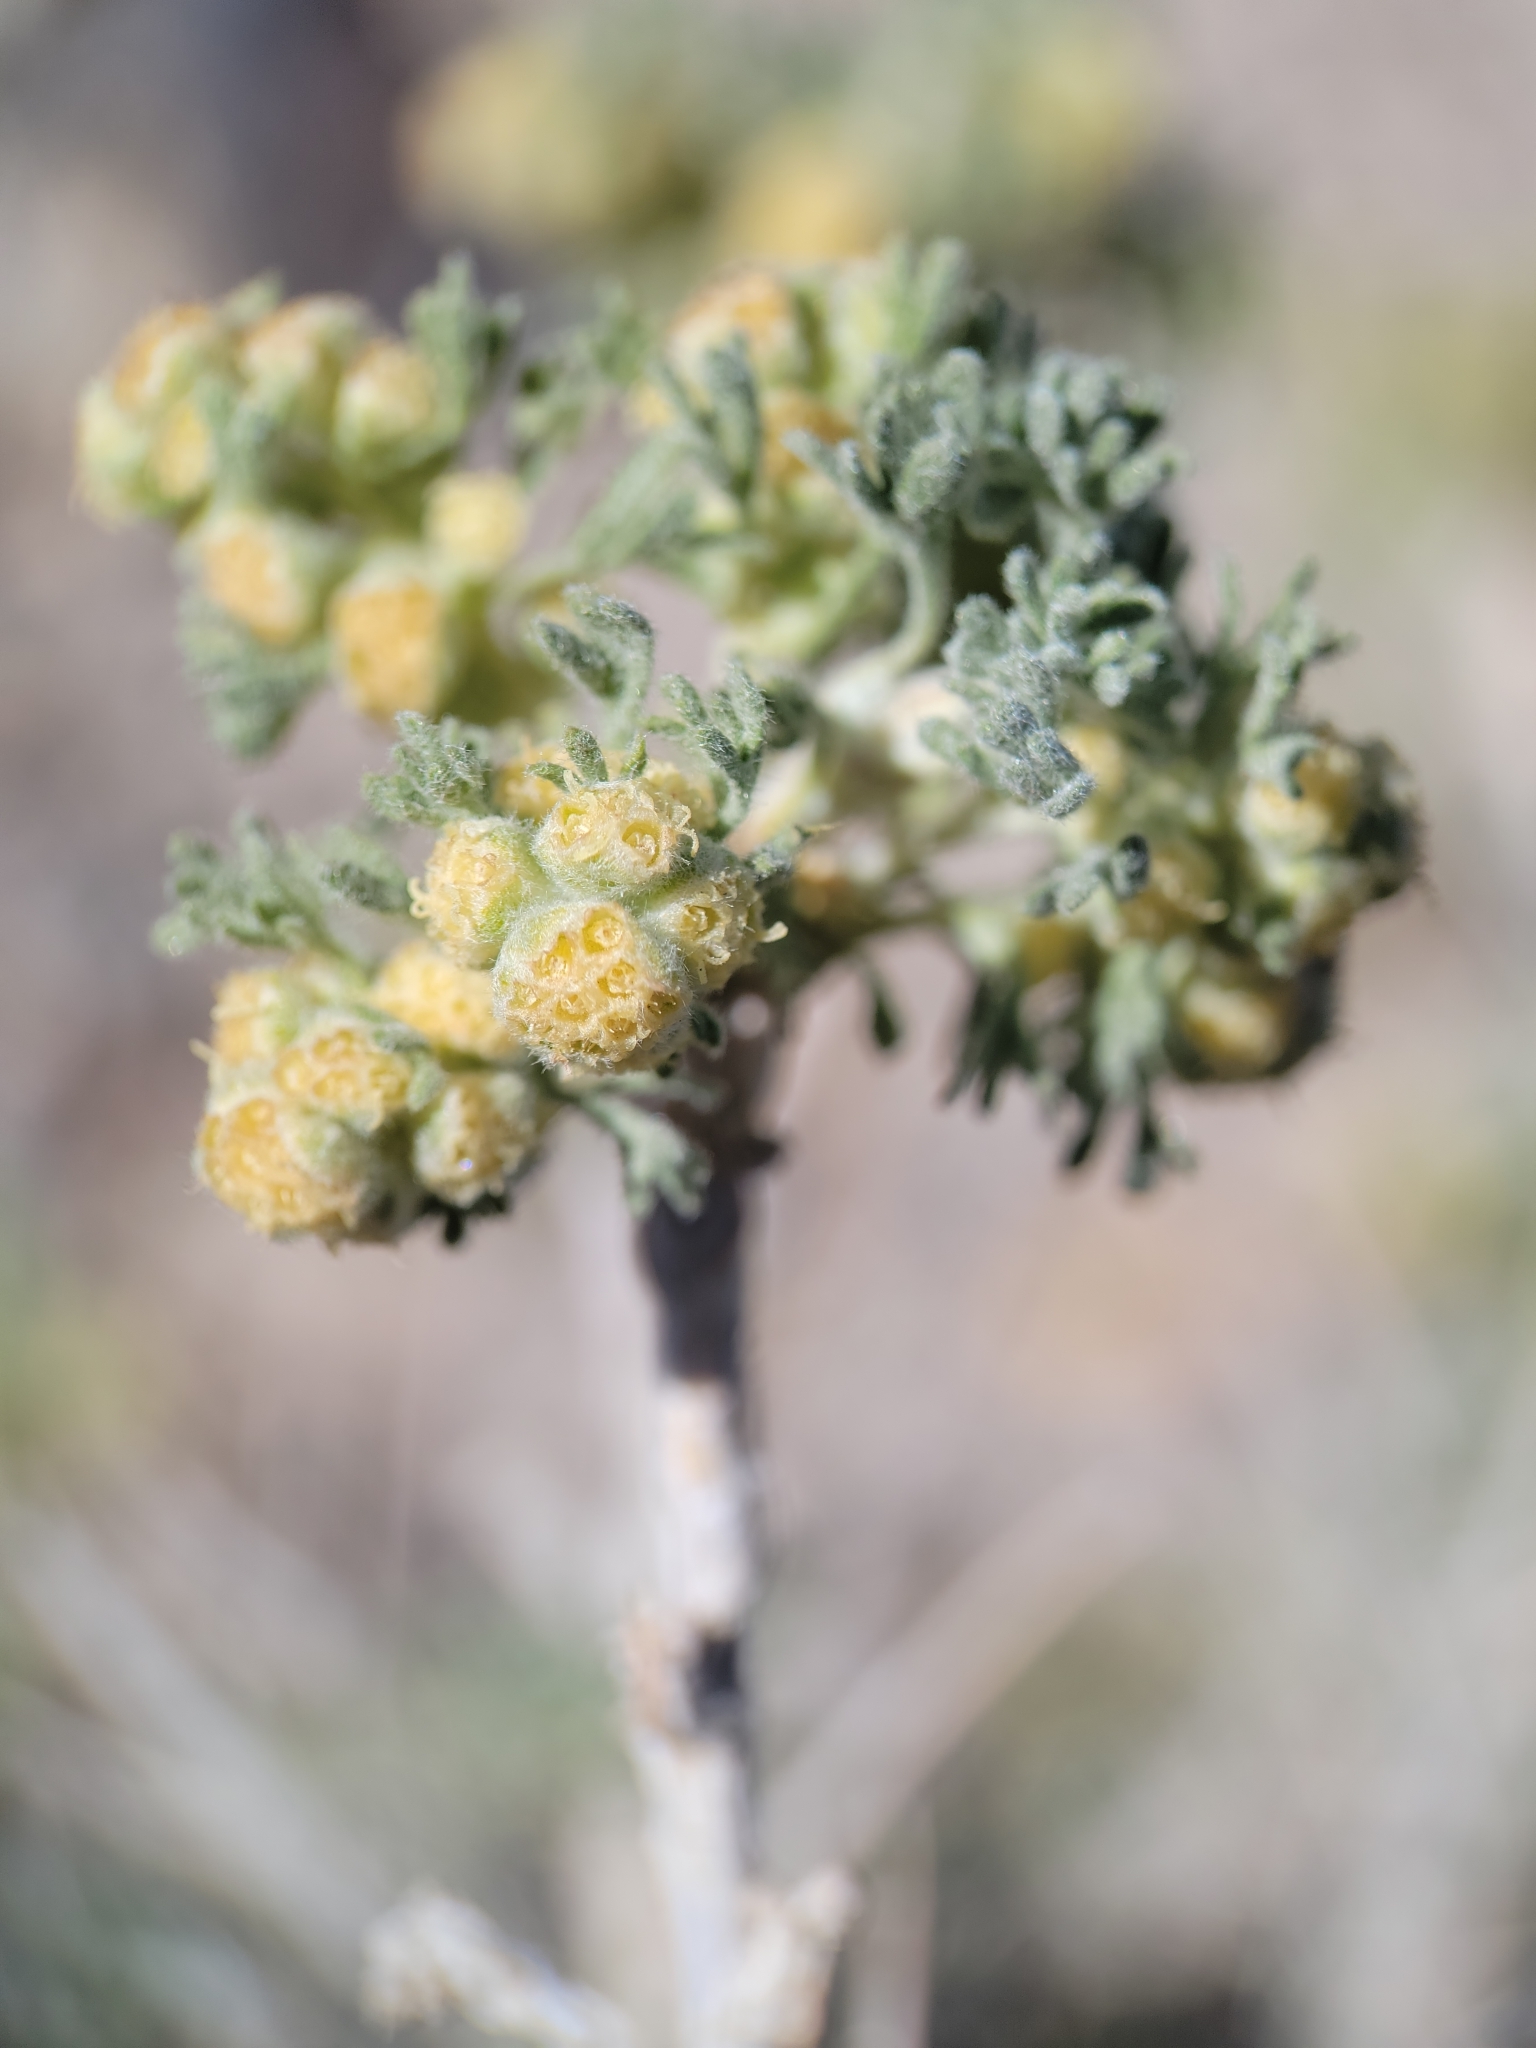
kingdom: Plantae
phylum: Tracheophyta
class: Magnoliopsida
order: Asterales
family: Asteraceae
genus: Artemisia
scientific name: Artemisia spinescens
